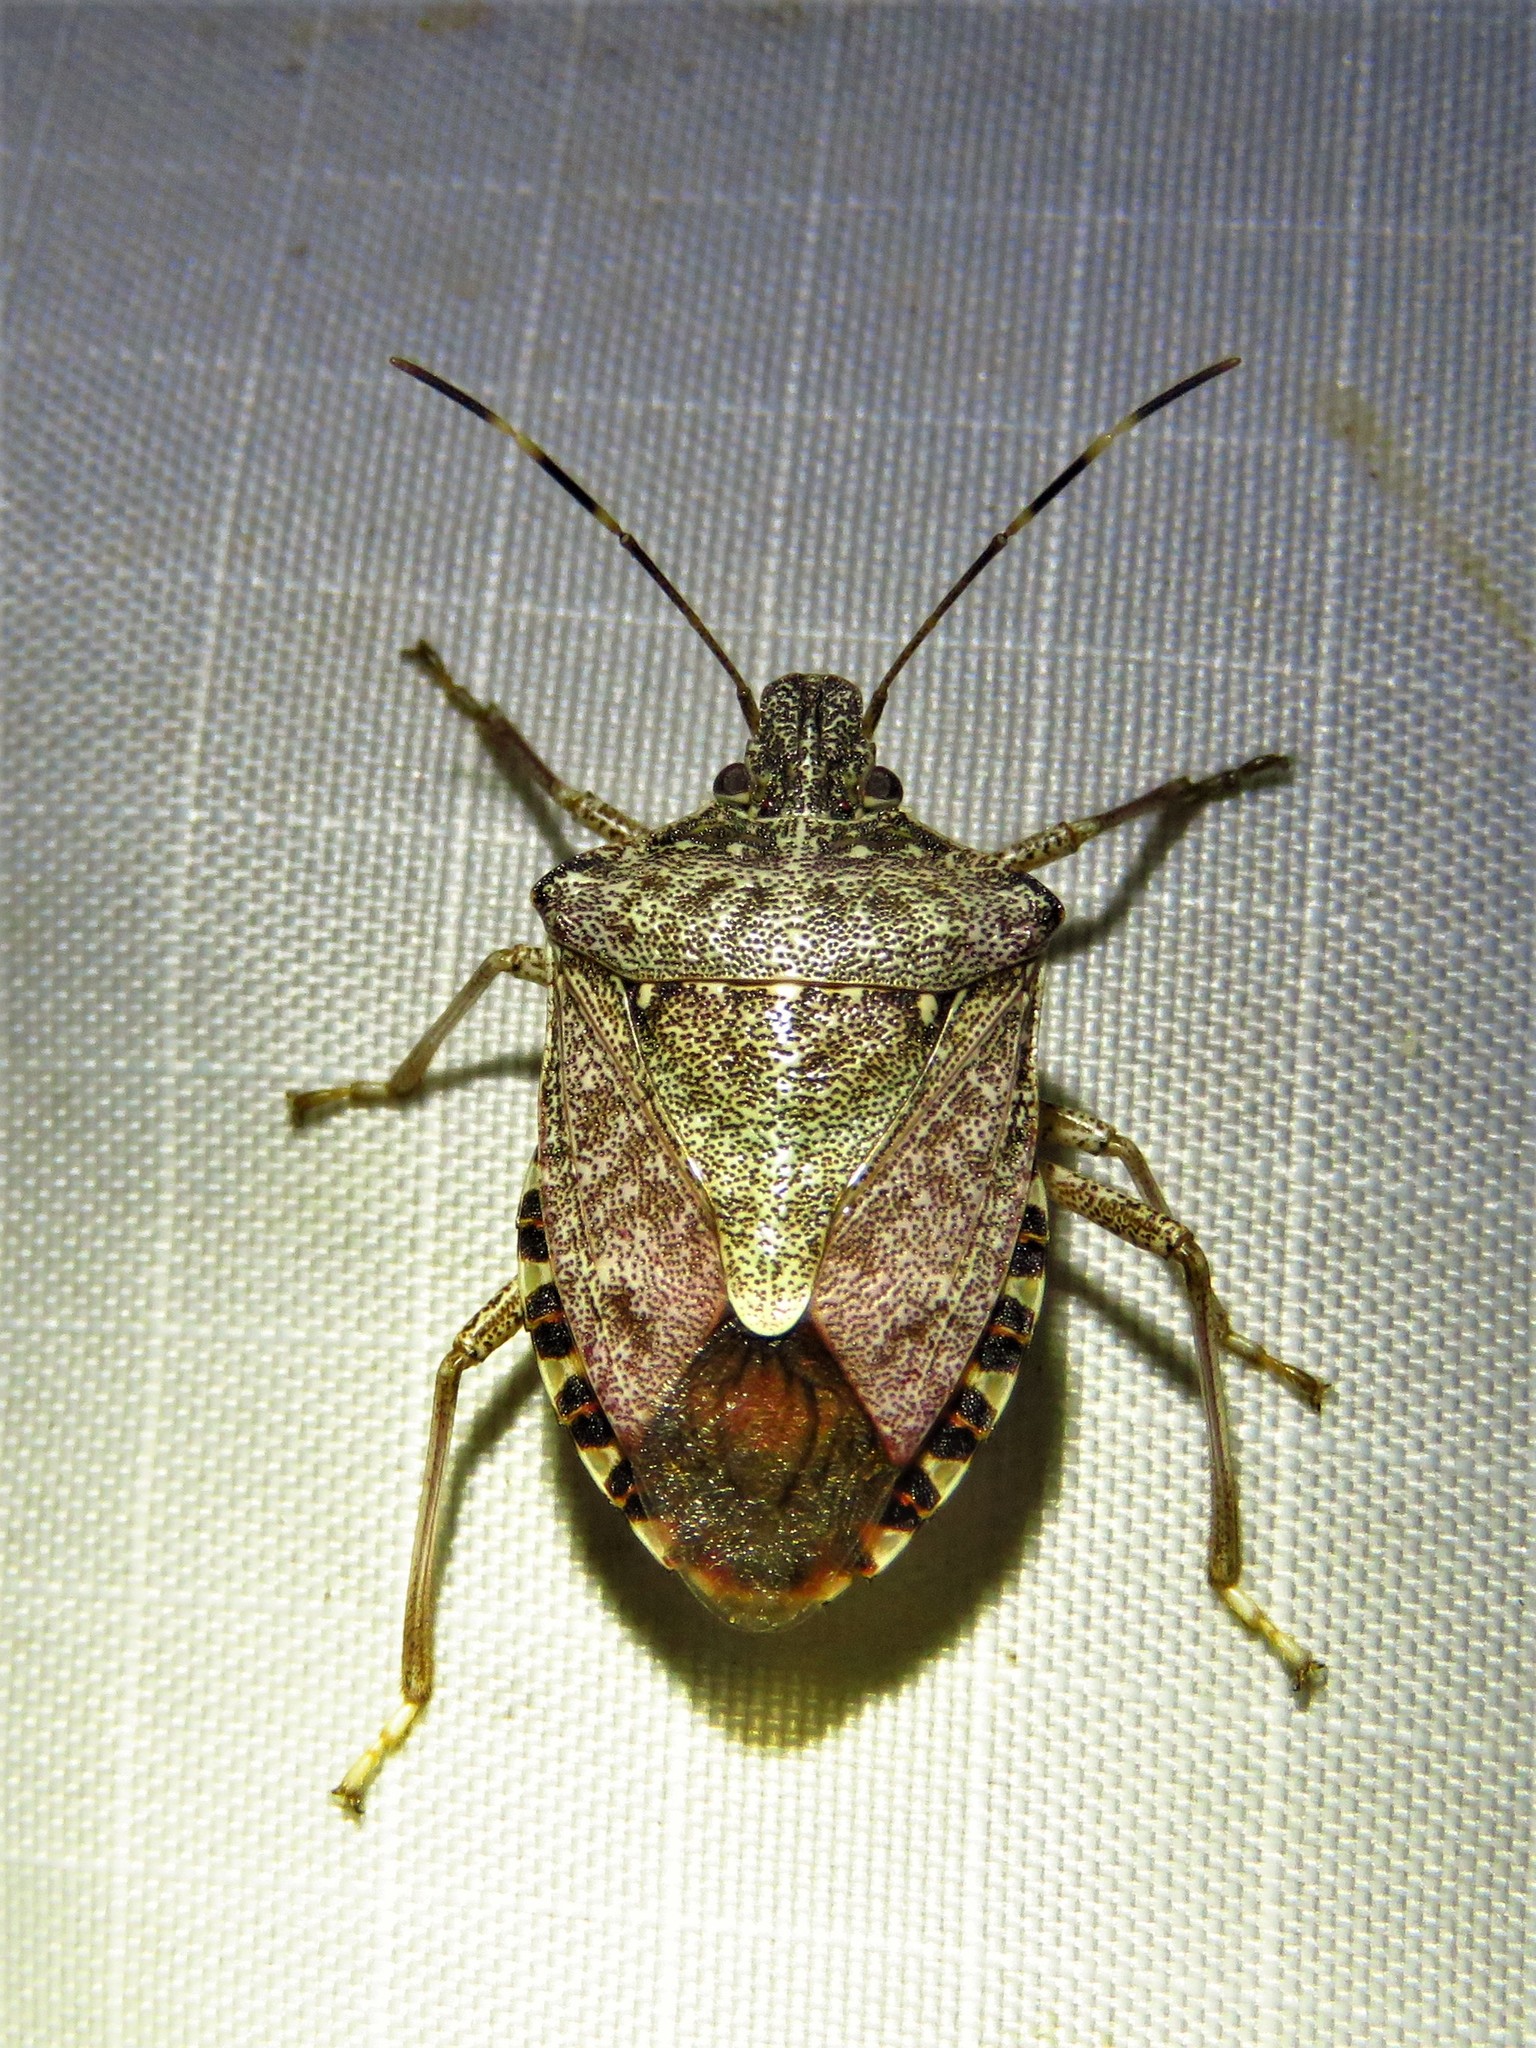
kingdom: Animalia
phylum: Arthropoda
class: Insecta
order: Hemiptera
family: Pentatomidae
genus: Halyomorpha
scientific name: Halyomorpha halys
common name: Brown marmorated stink bug
